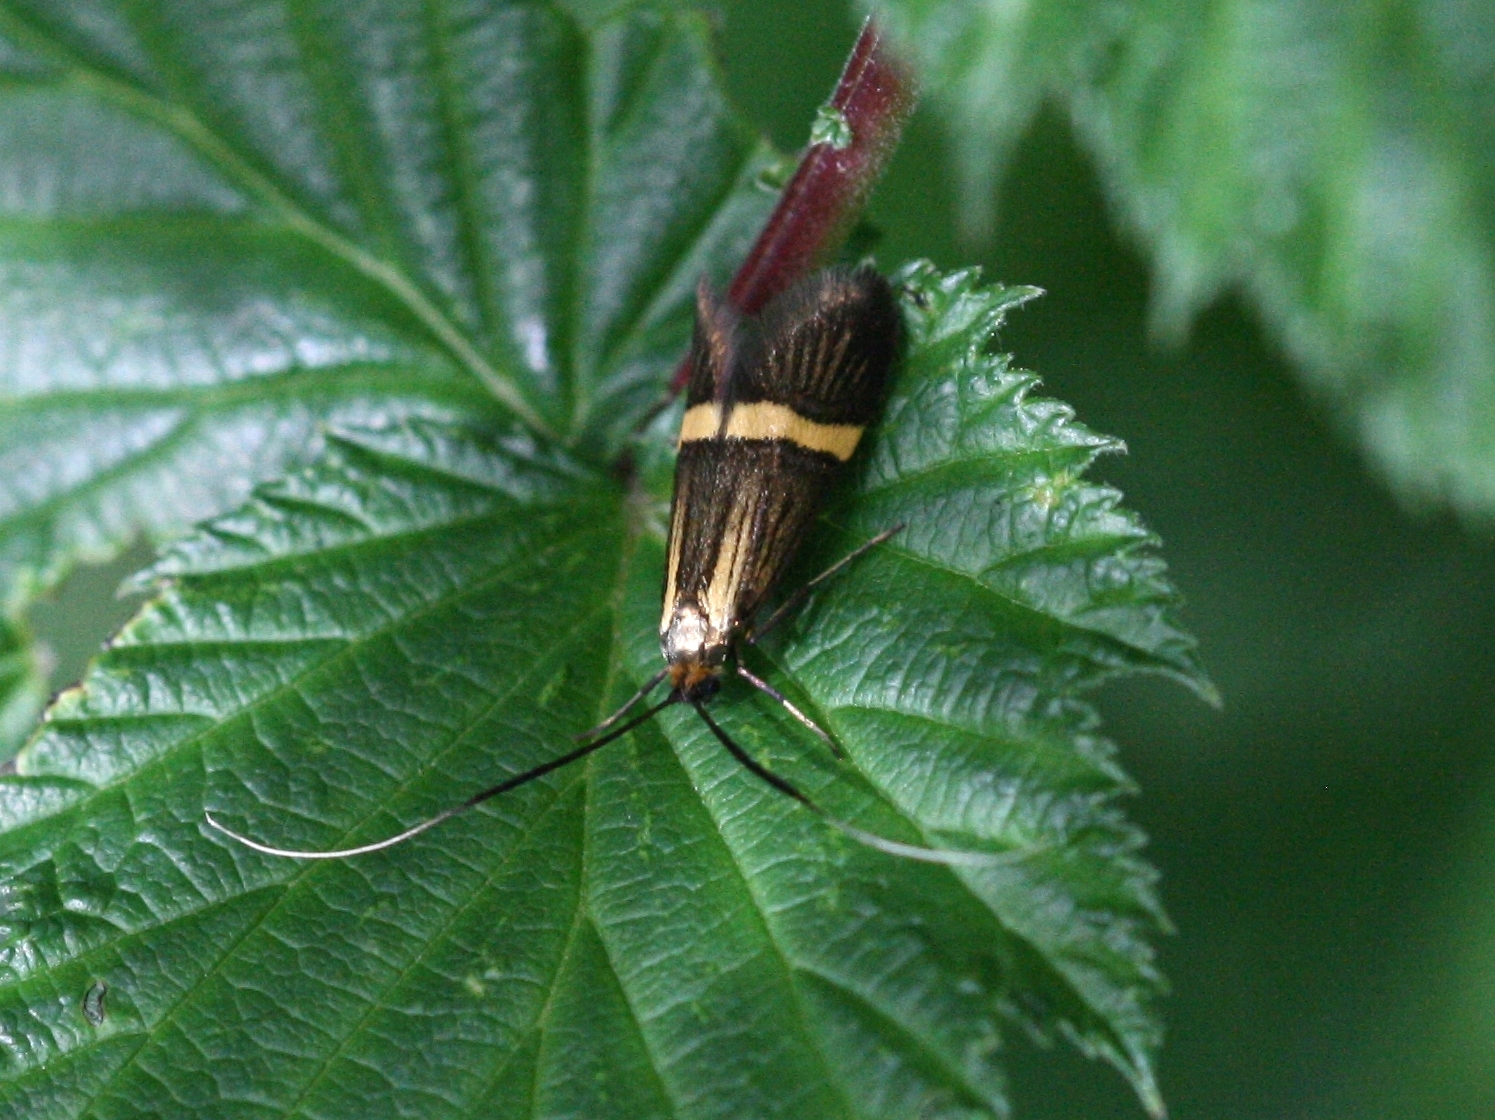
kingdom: Animalia
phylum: Arthropoda
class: Insecta
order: Lepidoptera
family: Adelidae
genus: Nemophora
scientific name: Nemophora degeerella
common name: Yellow-barred long-horn
